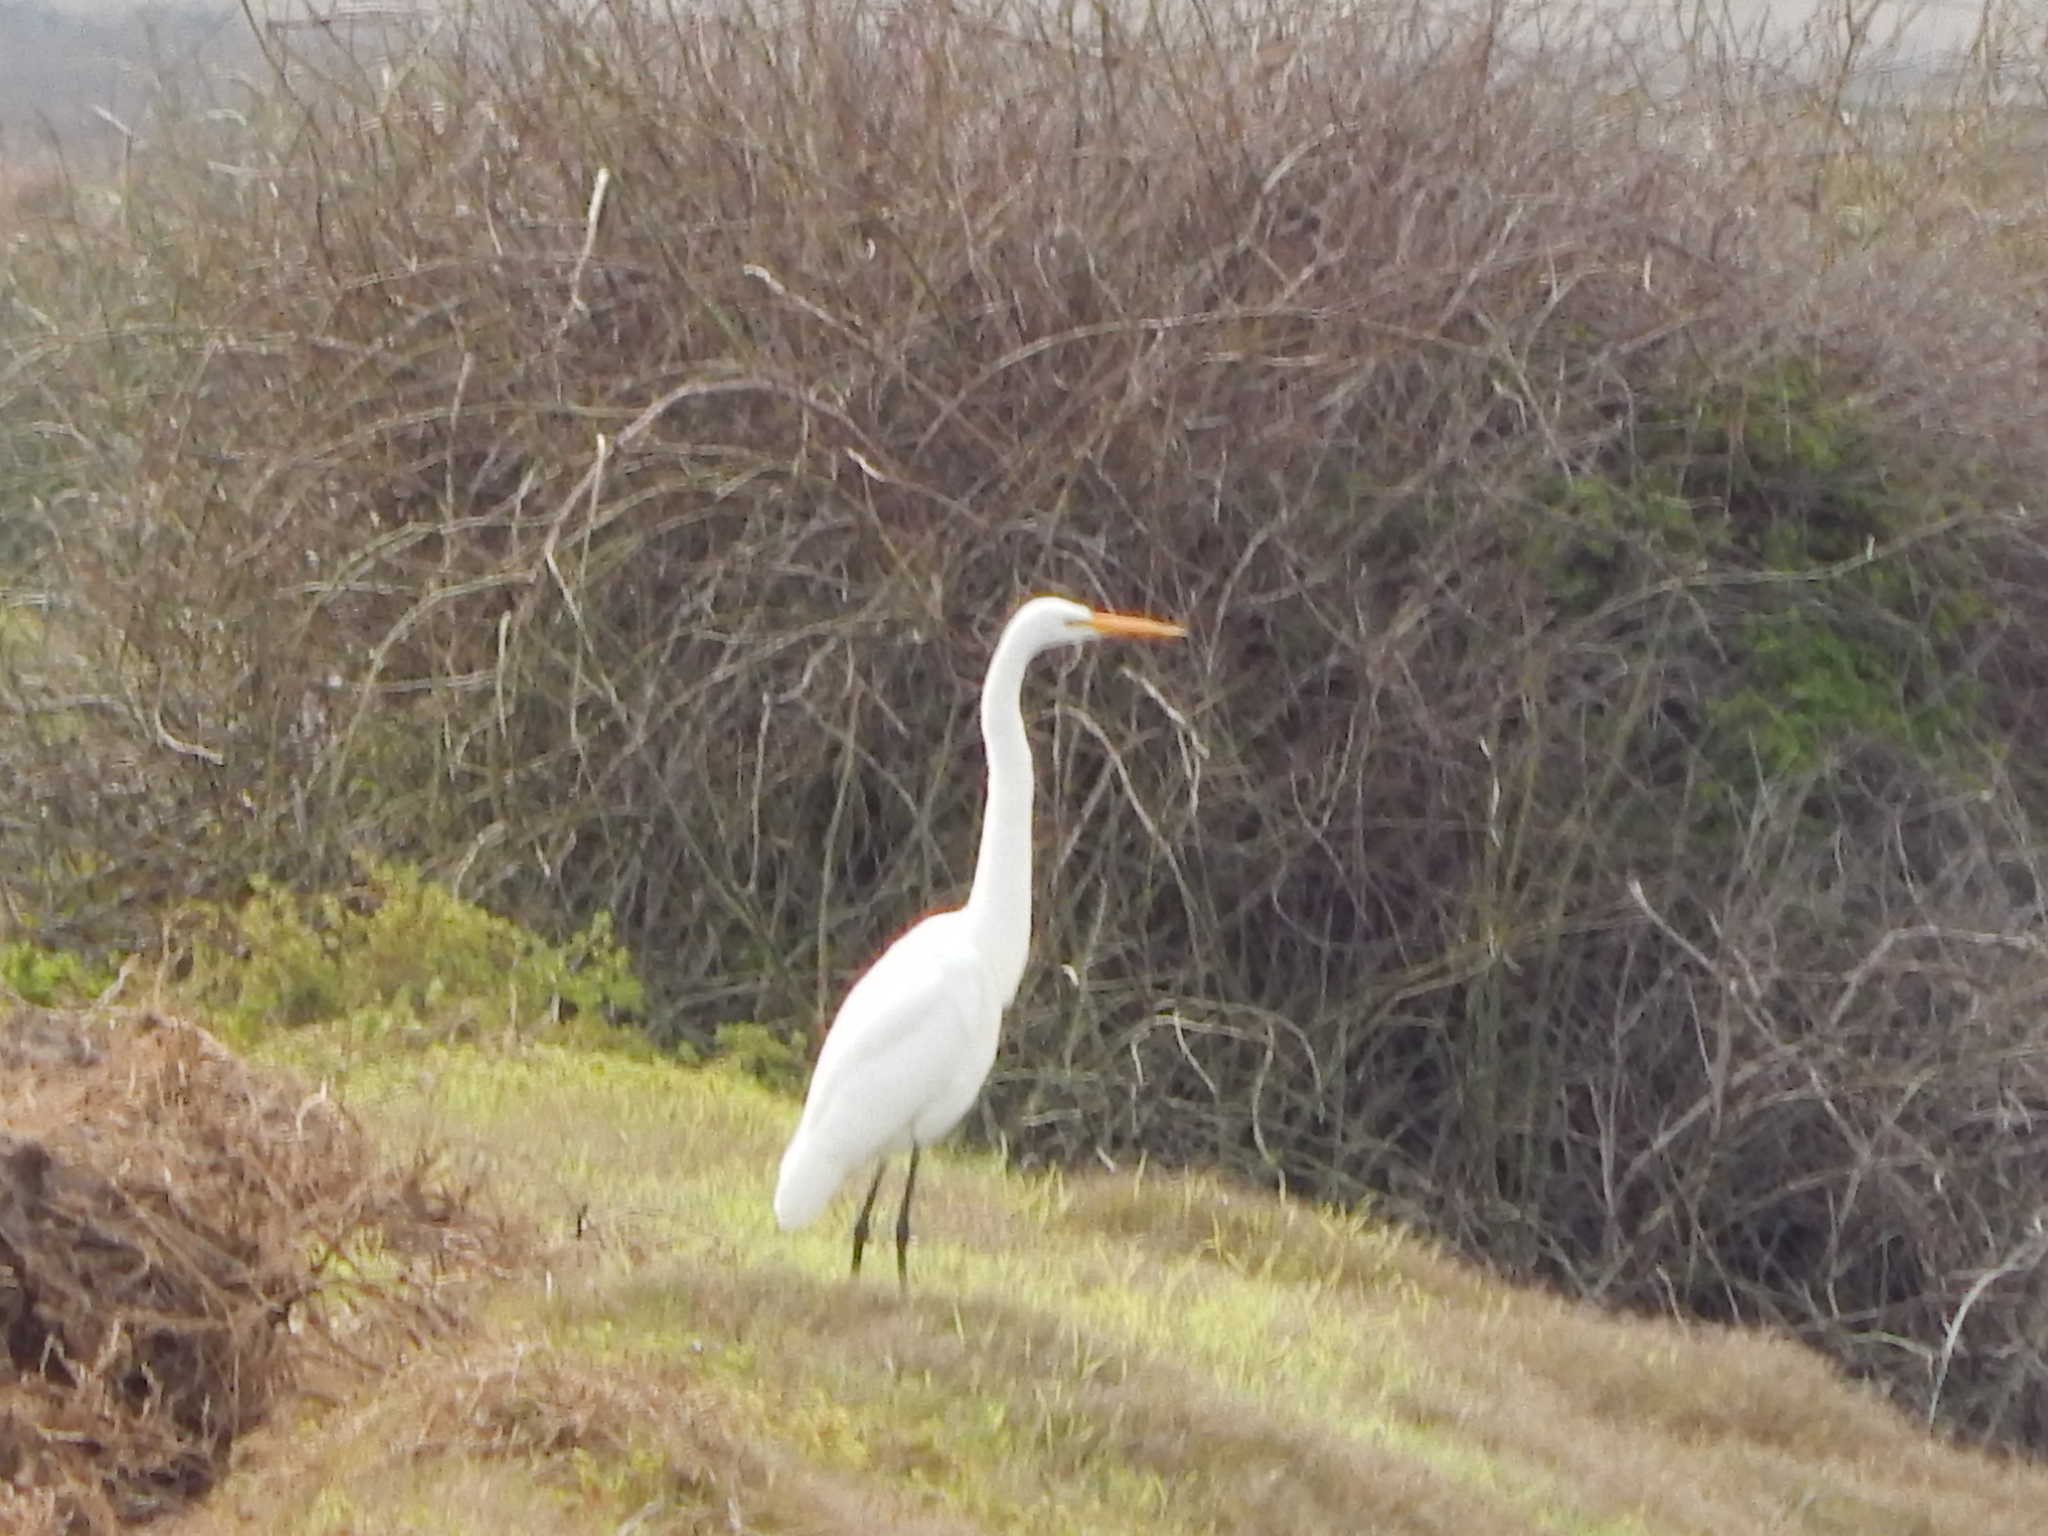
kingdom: Animalia
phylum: Chordata
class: Aves
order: Pelecaniformes
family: Ardeidae
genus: Ardea
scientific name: Ardea alba
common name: Great egret
